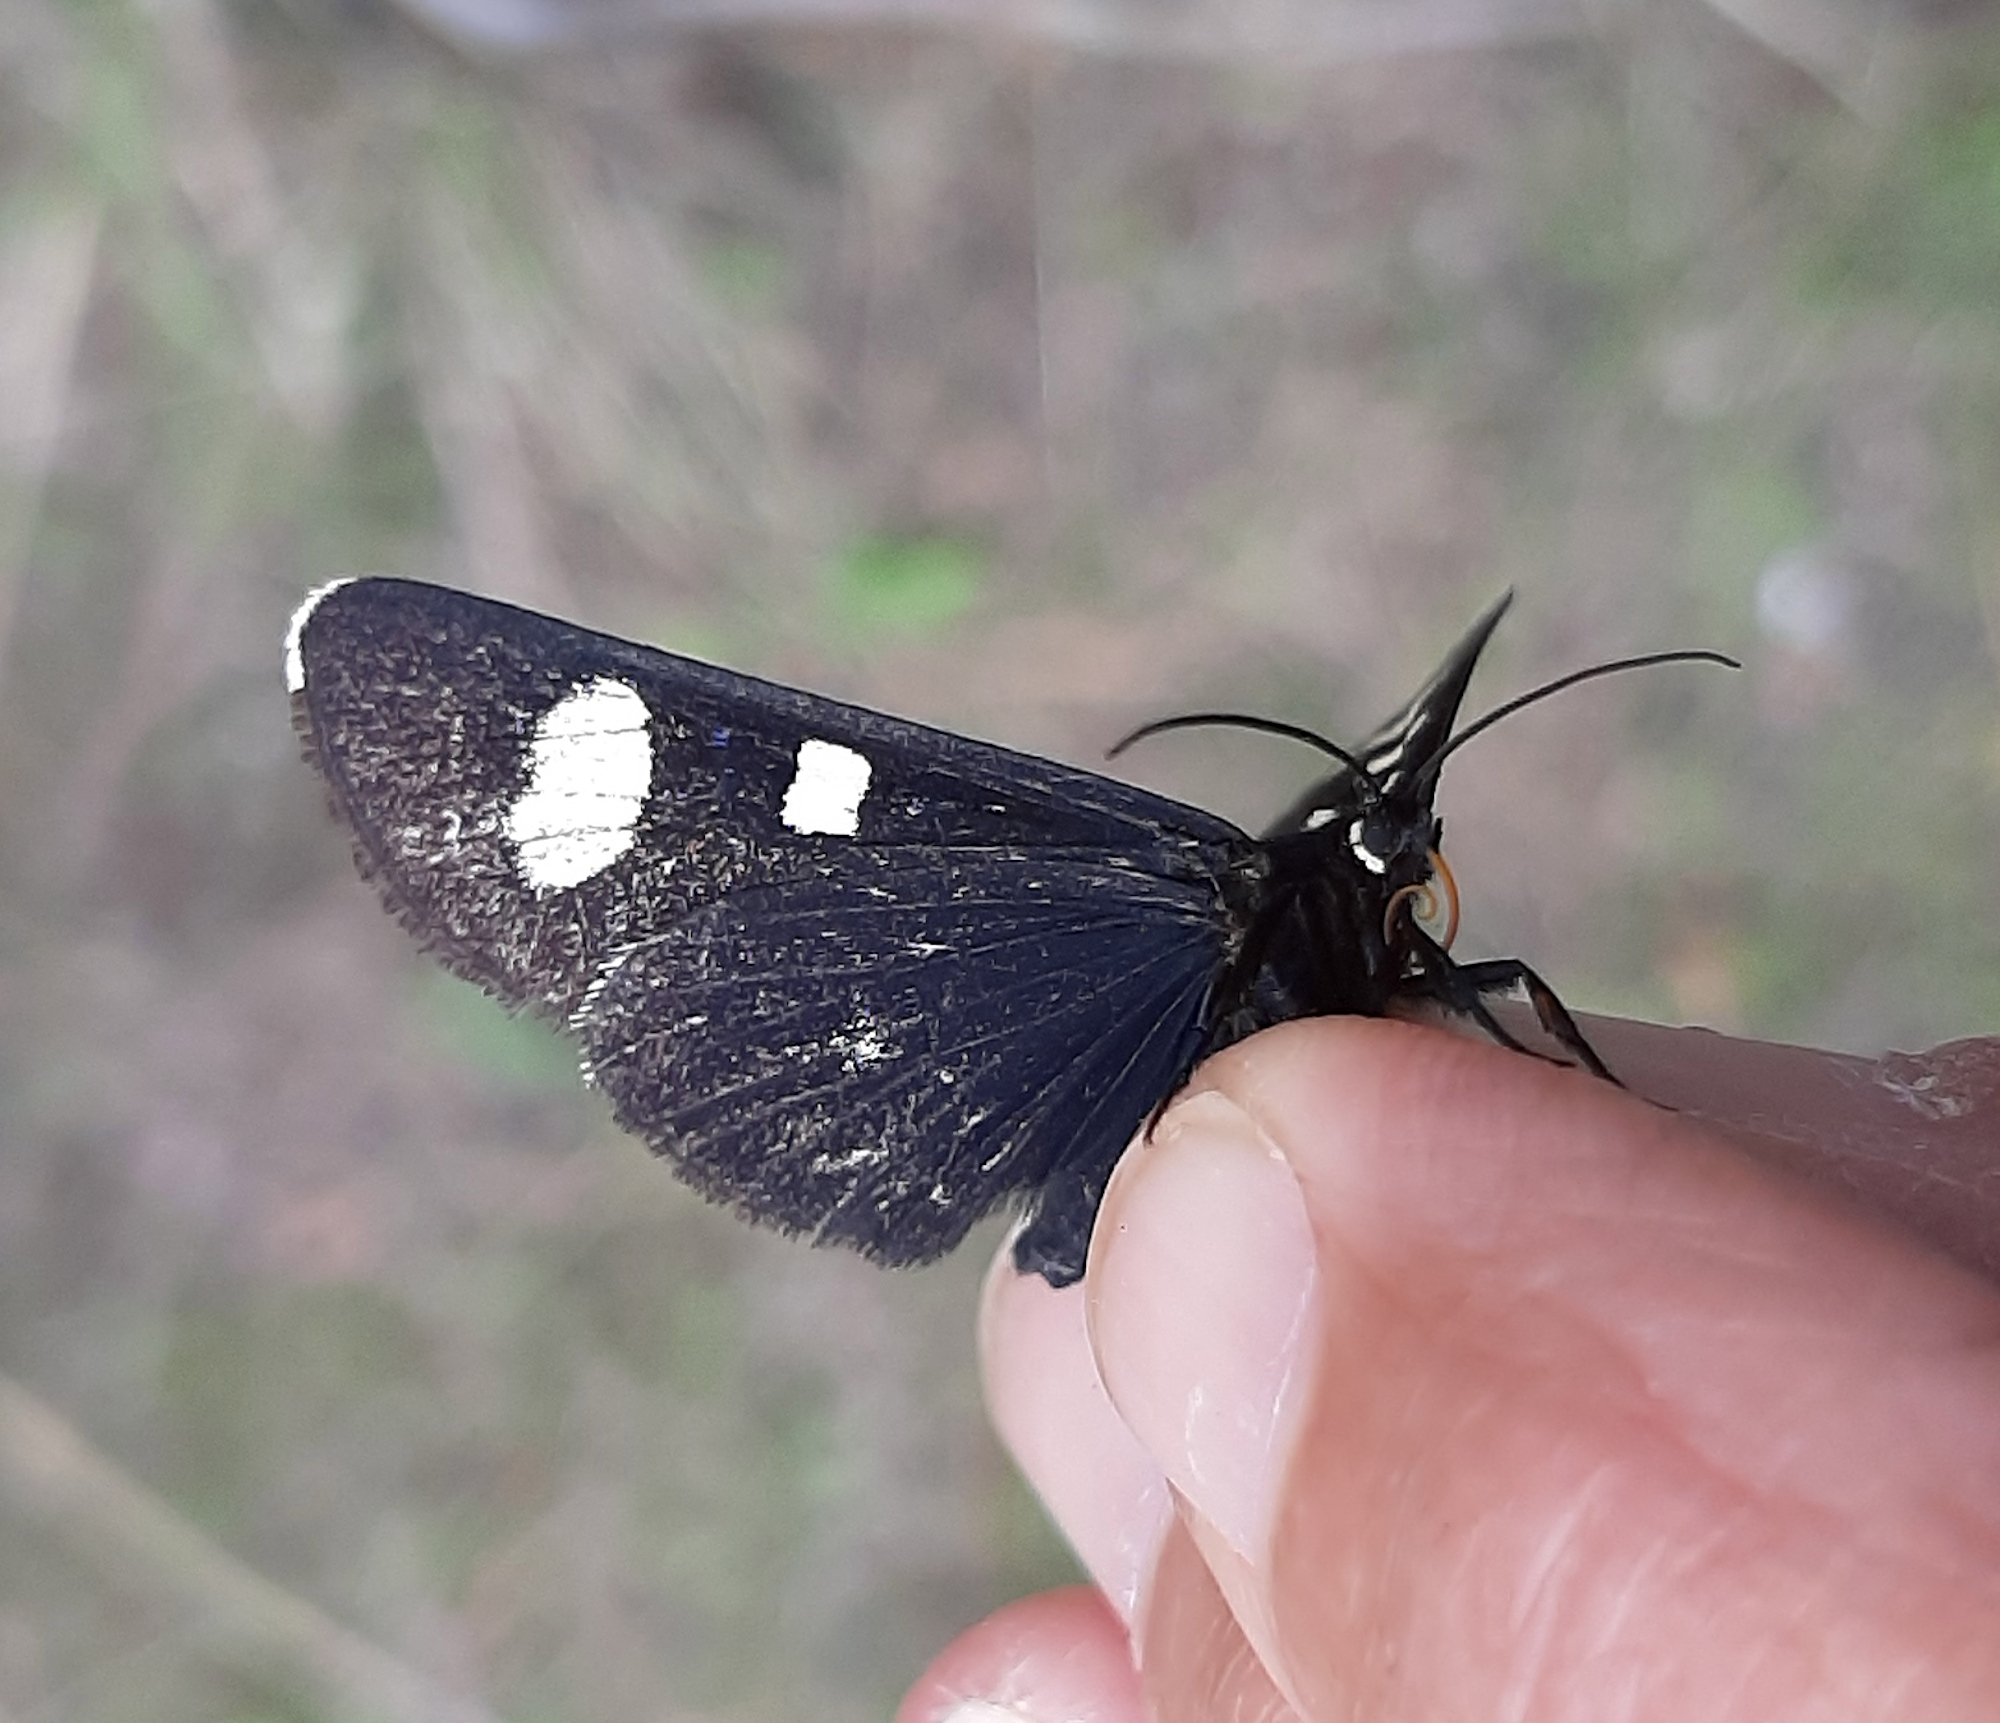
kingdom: Animalia
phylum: Arthropoda
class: Insecta
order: Lepidoptera
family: Noctuidae
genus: Alypiodes
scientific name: Alypiodes bimaculata
